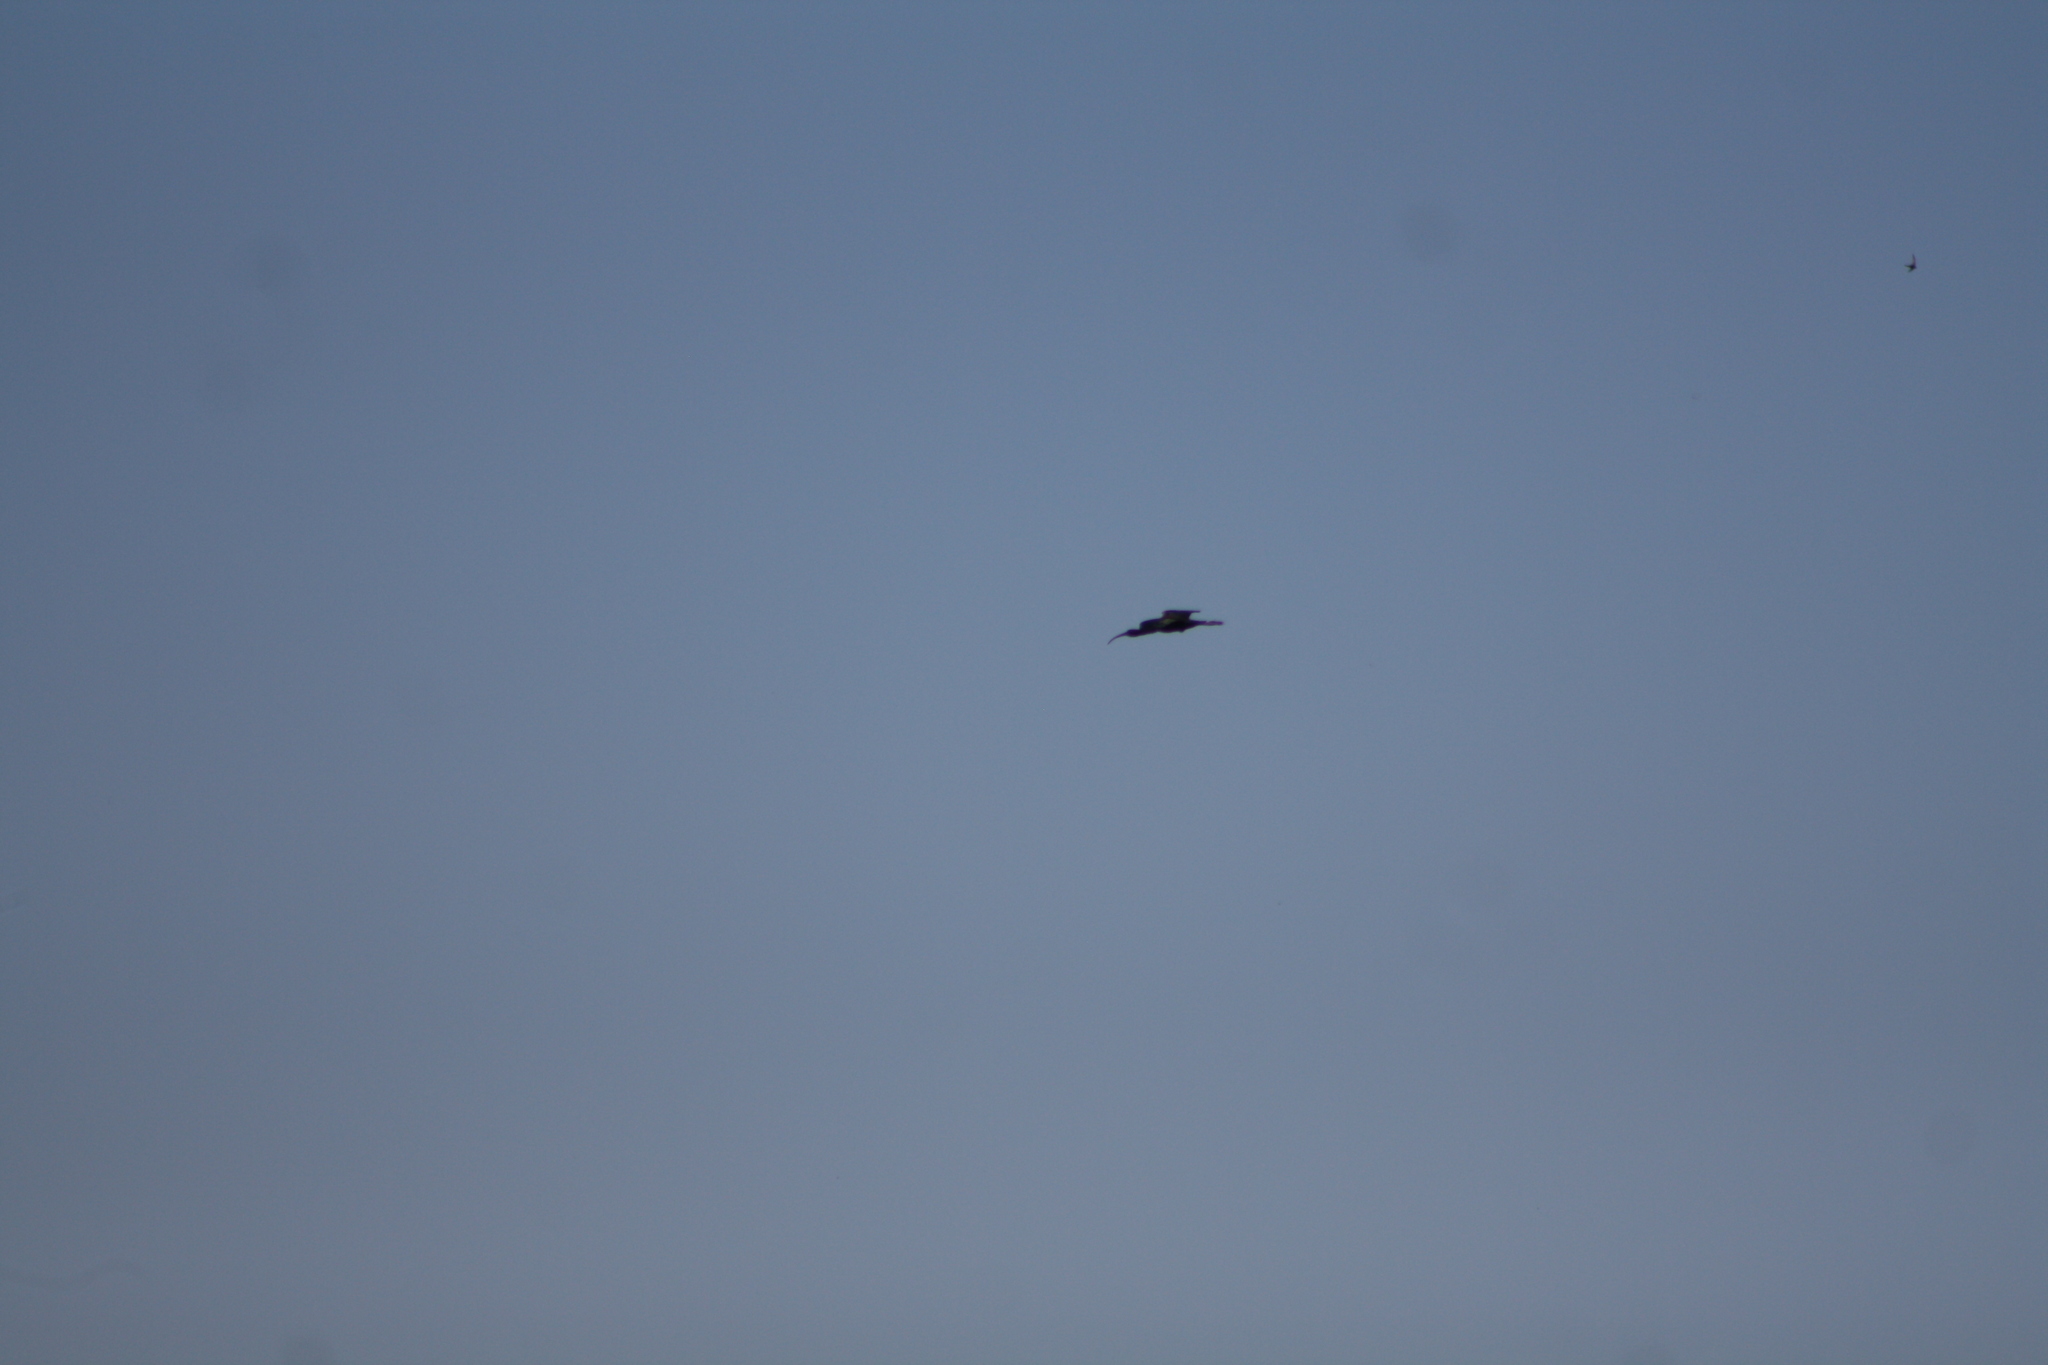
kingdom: Animalia
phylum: Chordata
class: Aves
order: Pelecaniformes
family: Threskiornithidae
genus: Plegadis
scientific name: Plegadis falcinellus
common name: Glossy ibis
